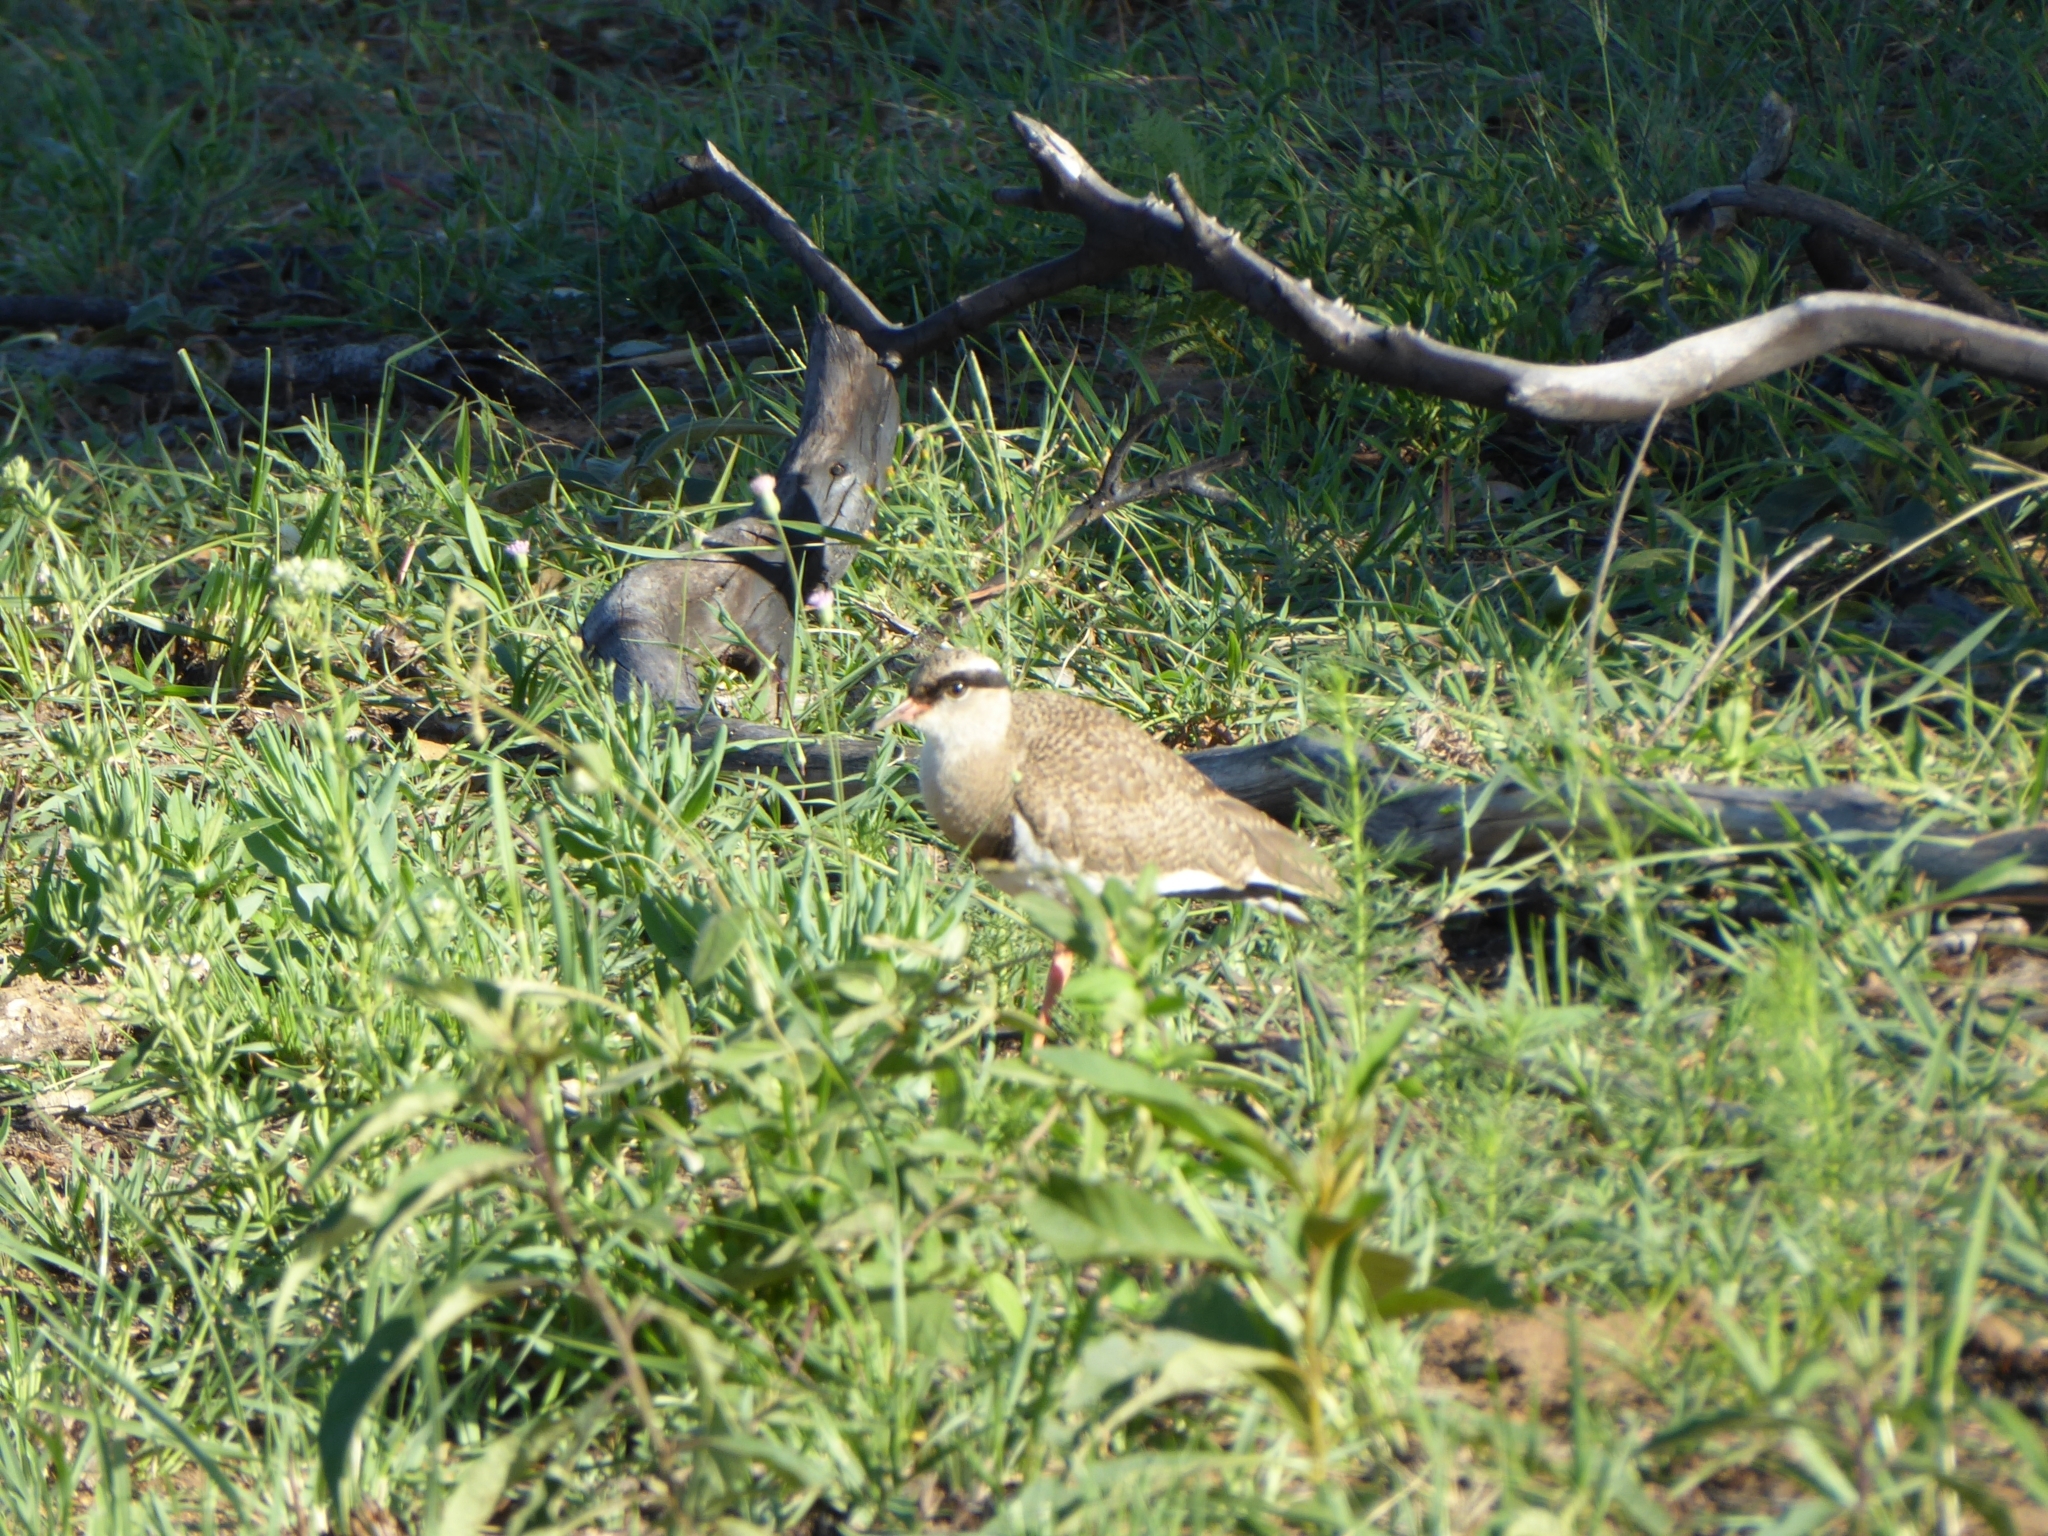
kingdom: Animalia
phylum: Chordata
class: Aves
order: Charadriiformes
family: Charadriidae
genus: Vanellus
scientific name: Vanellus coronatus
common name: Crowned lapwing
